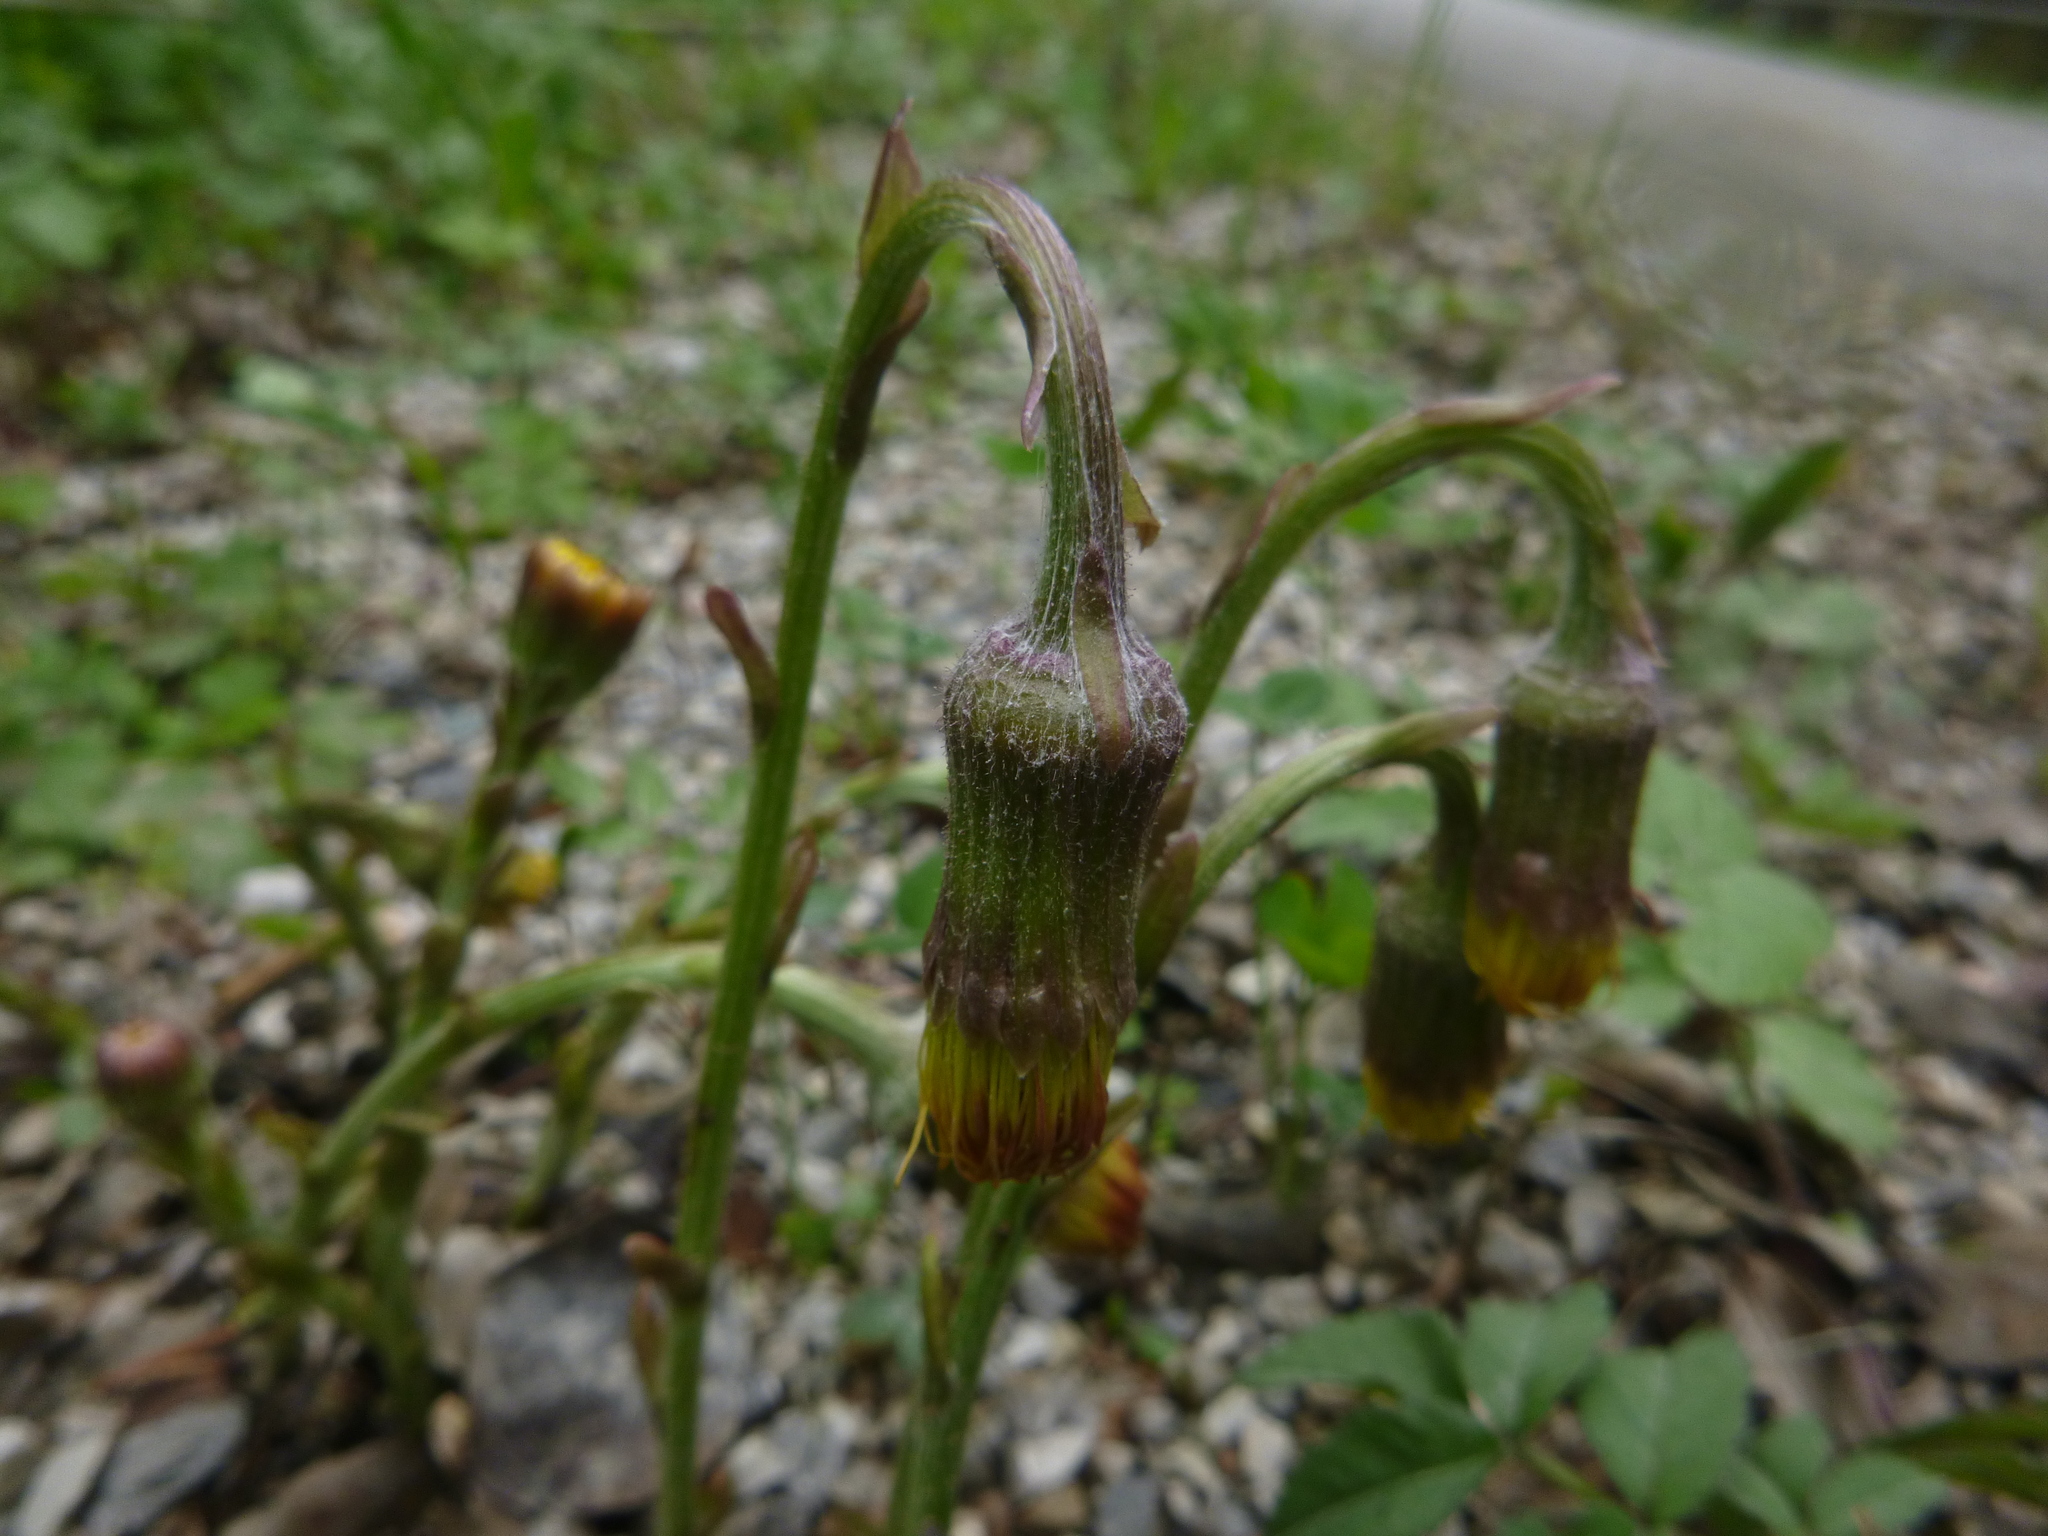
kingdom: Plantae
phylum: Tracheophyta
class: Magnoliopsida
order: Asterales
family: Asteraceae
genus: Tussilago
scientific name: Tussilago farfara
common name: Coltsfoot
